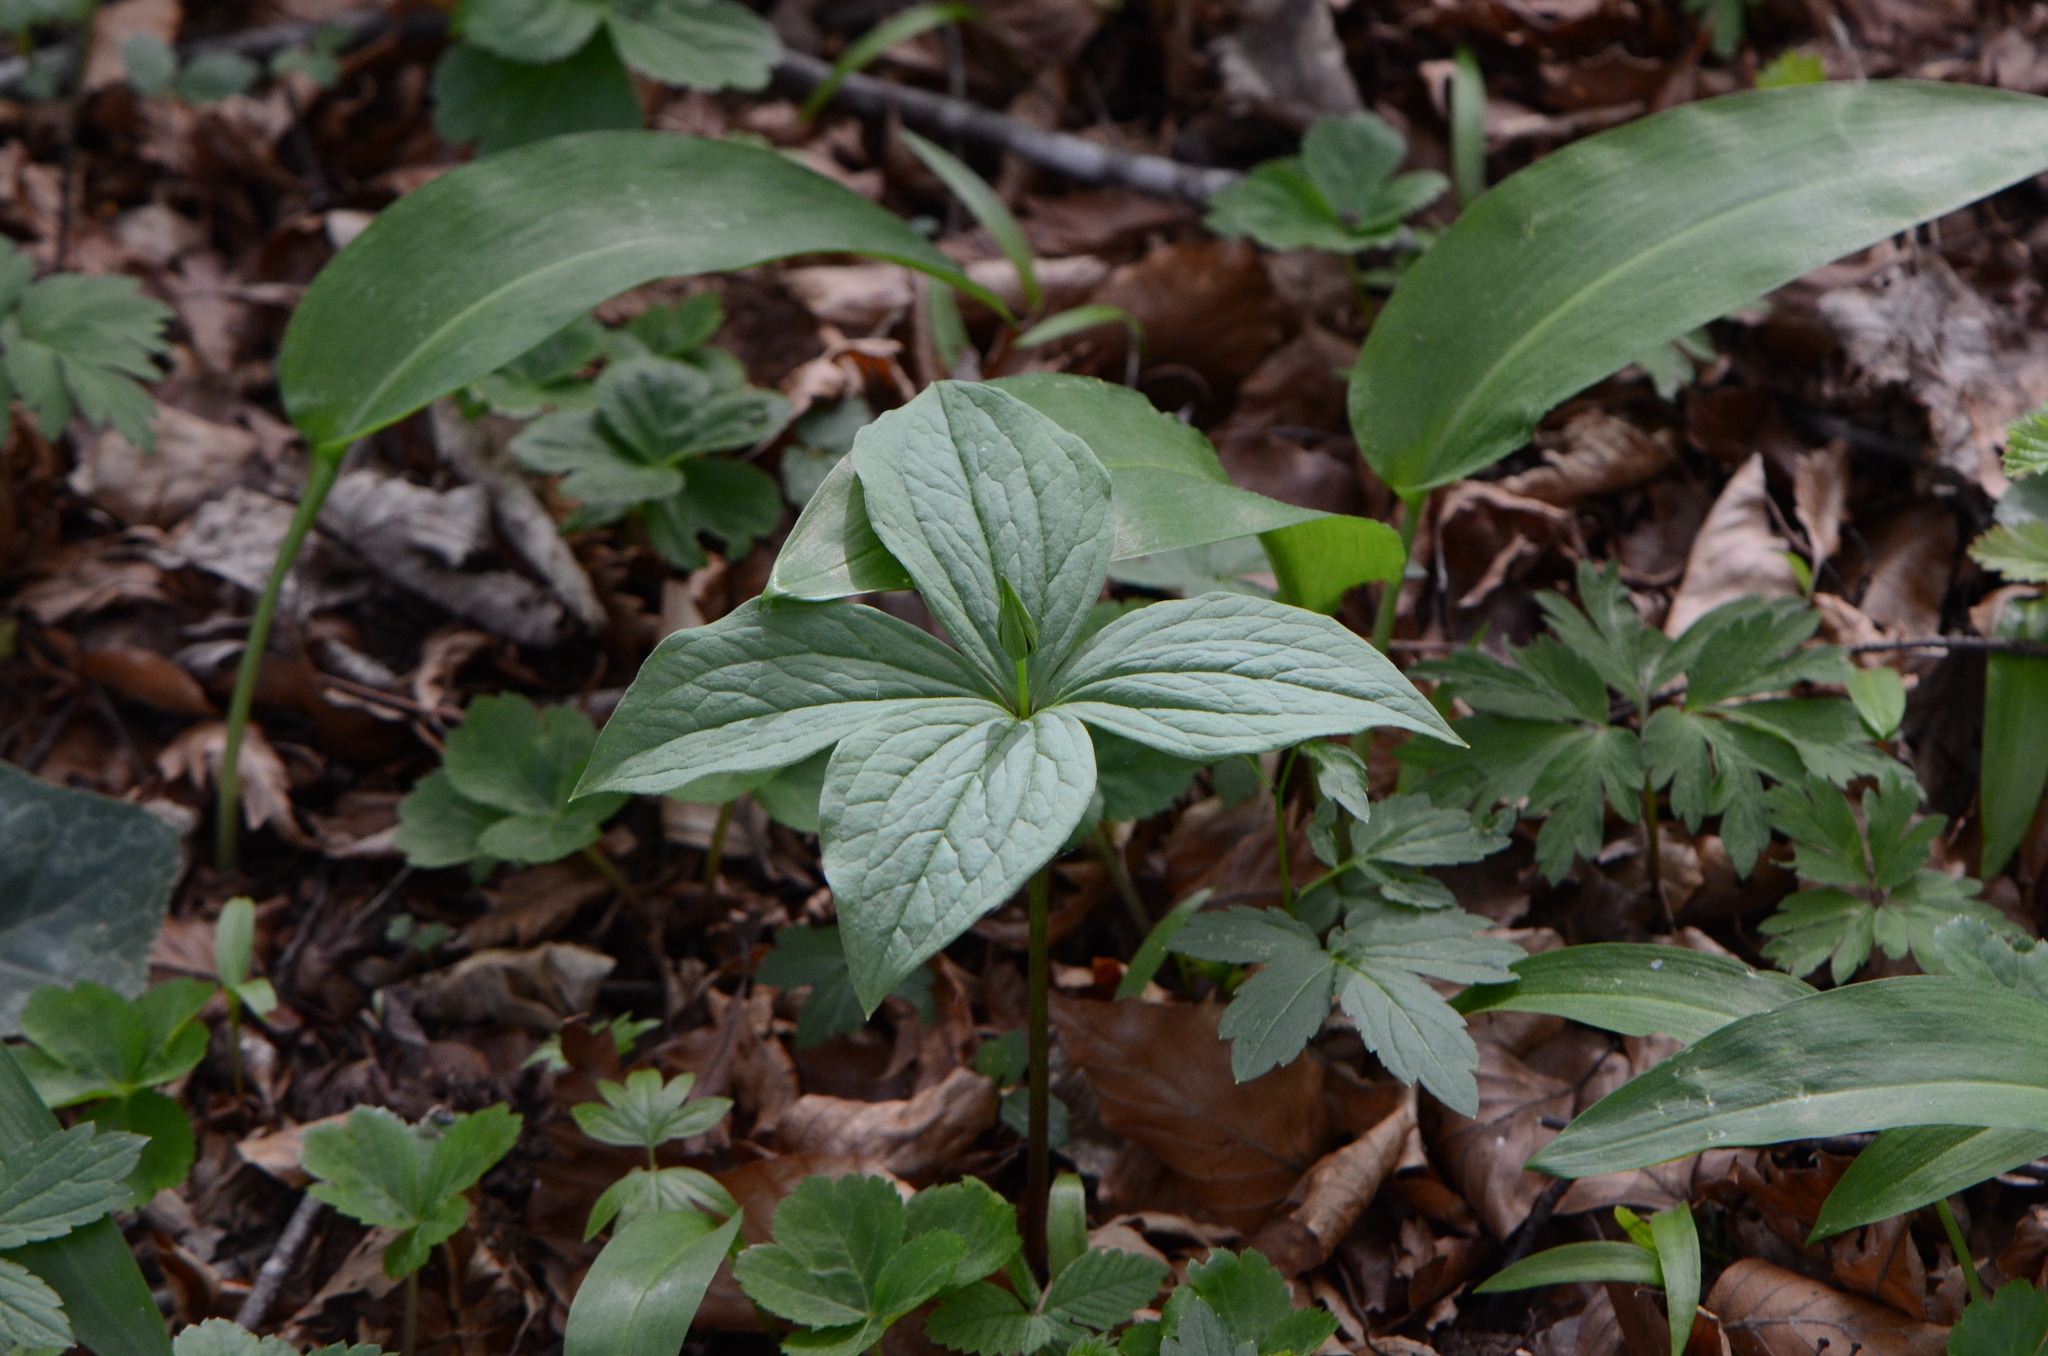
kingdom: Plantae
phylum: Tracheophyta
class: Liliopsida
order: Liliales
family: Melanthiaceae
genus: Paris
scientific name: Paris quadrifolia
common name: Herb-paris
